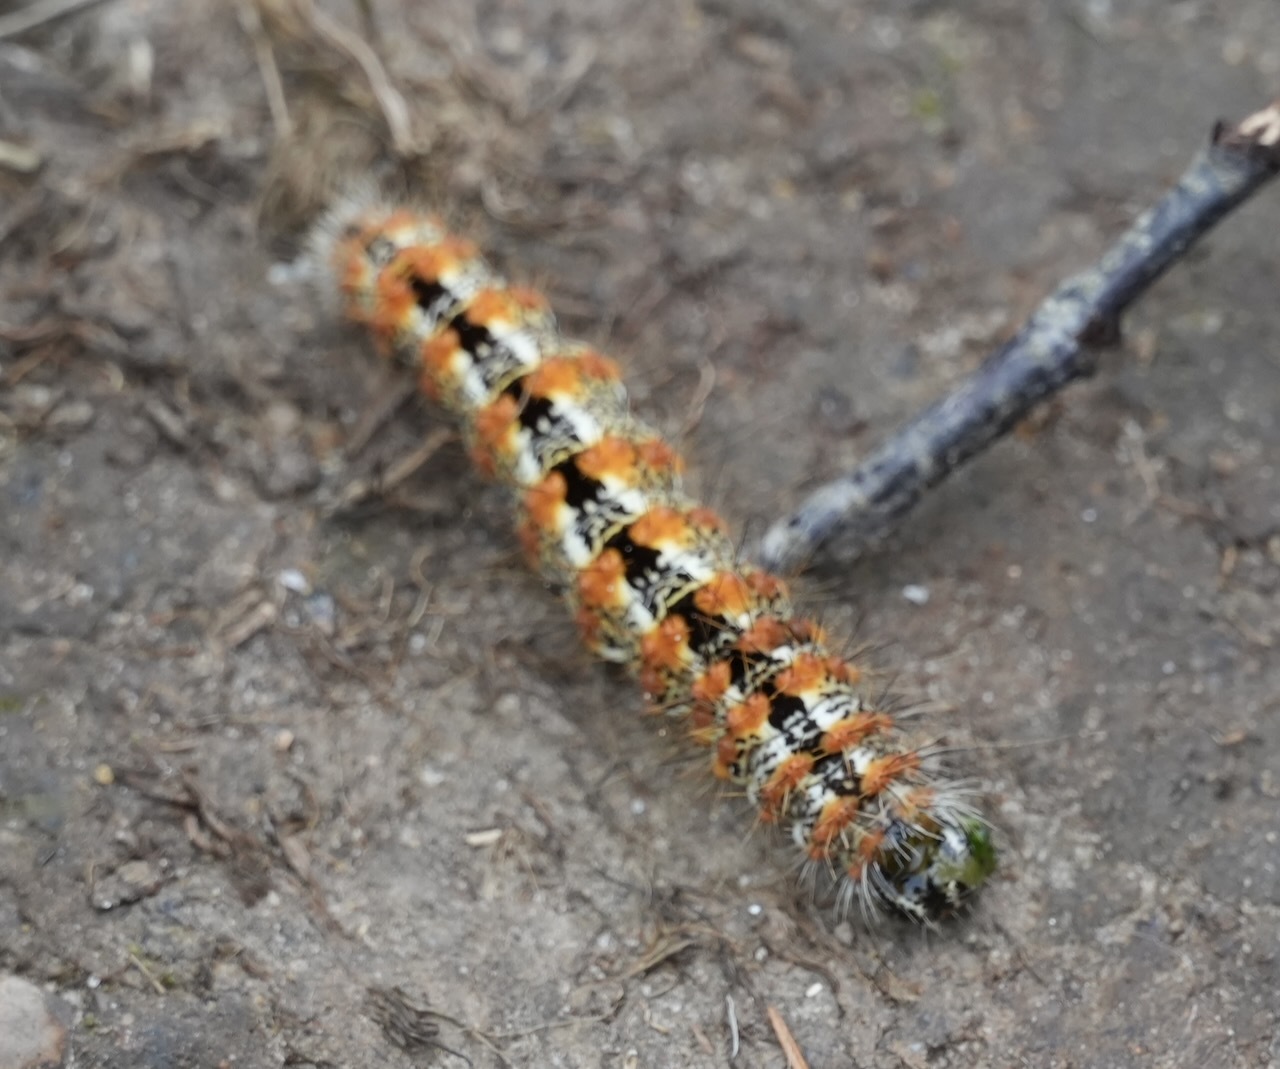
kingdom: Animalia
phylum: Arthropoda
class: Insecta
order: Lepidoptera
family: Noctuidae
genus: Acronicta
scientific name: Acronicta insularis
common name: Henry's marsh moth
